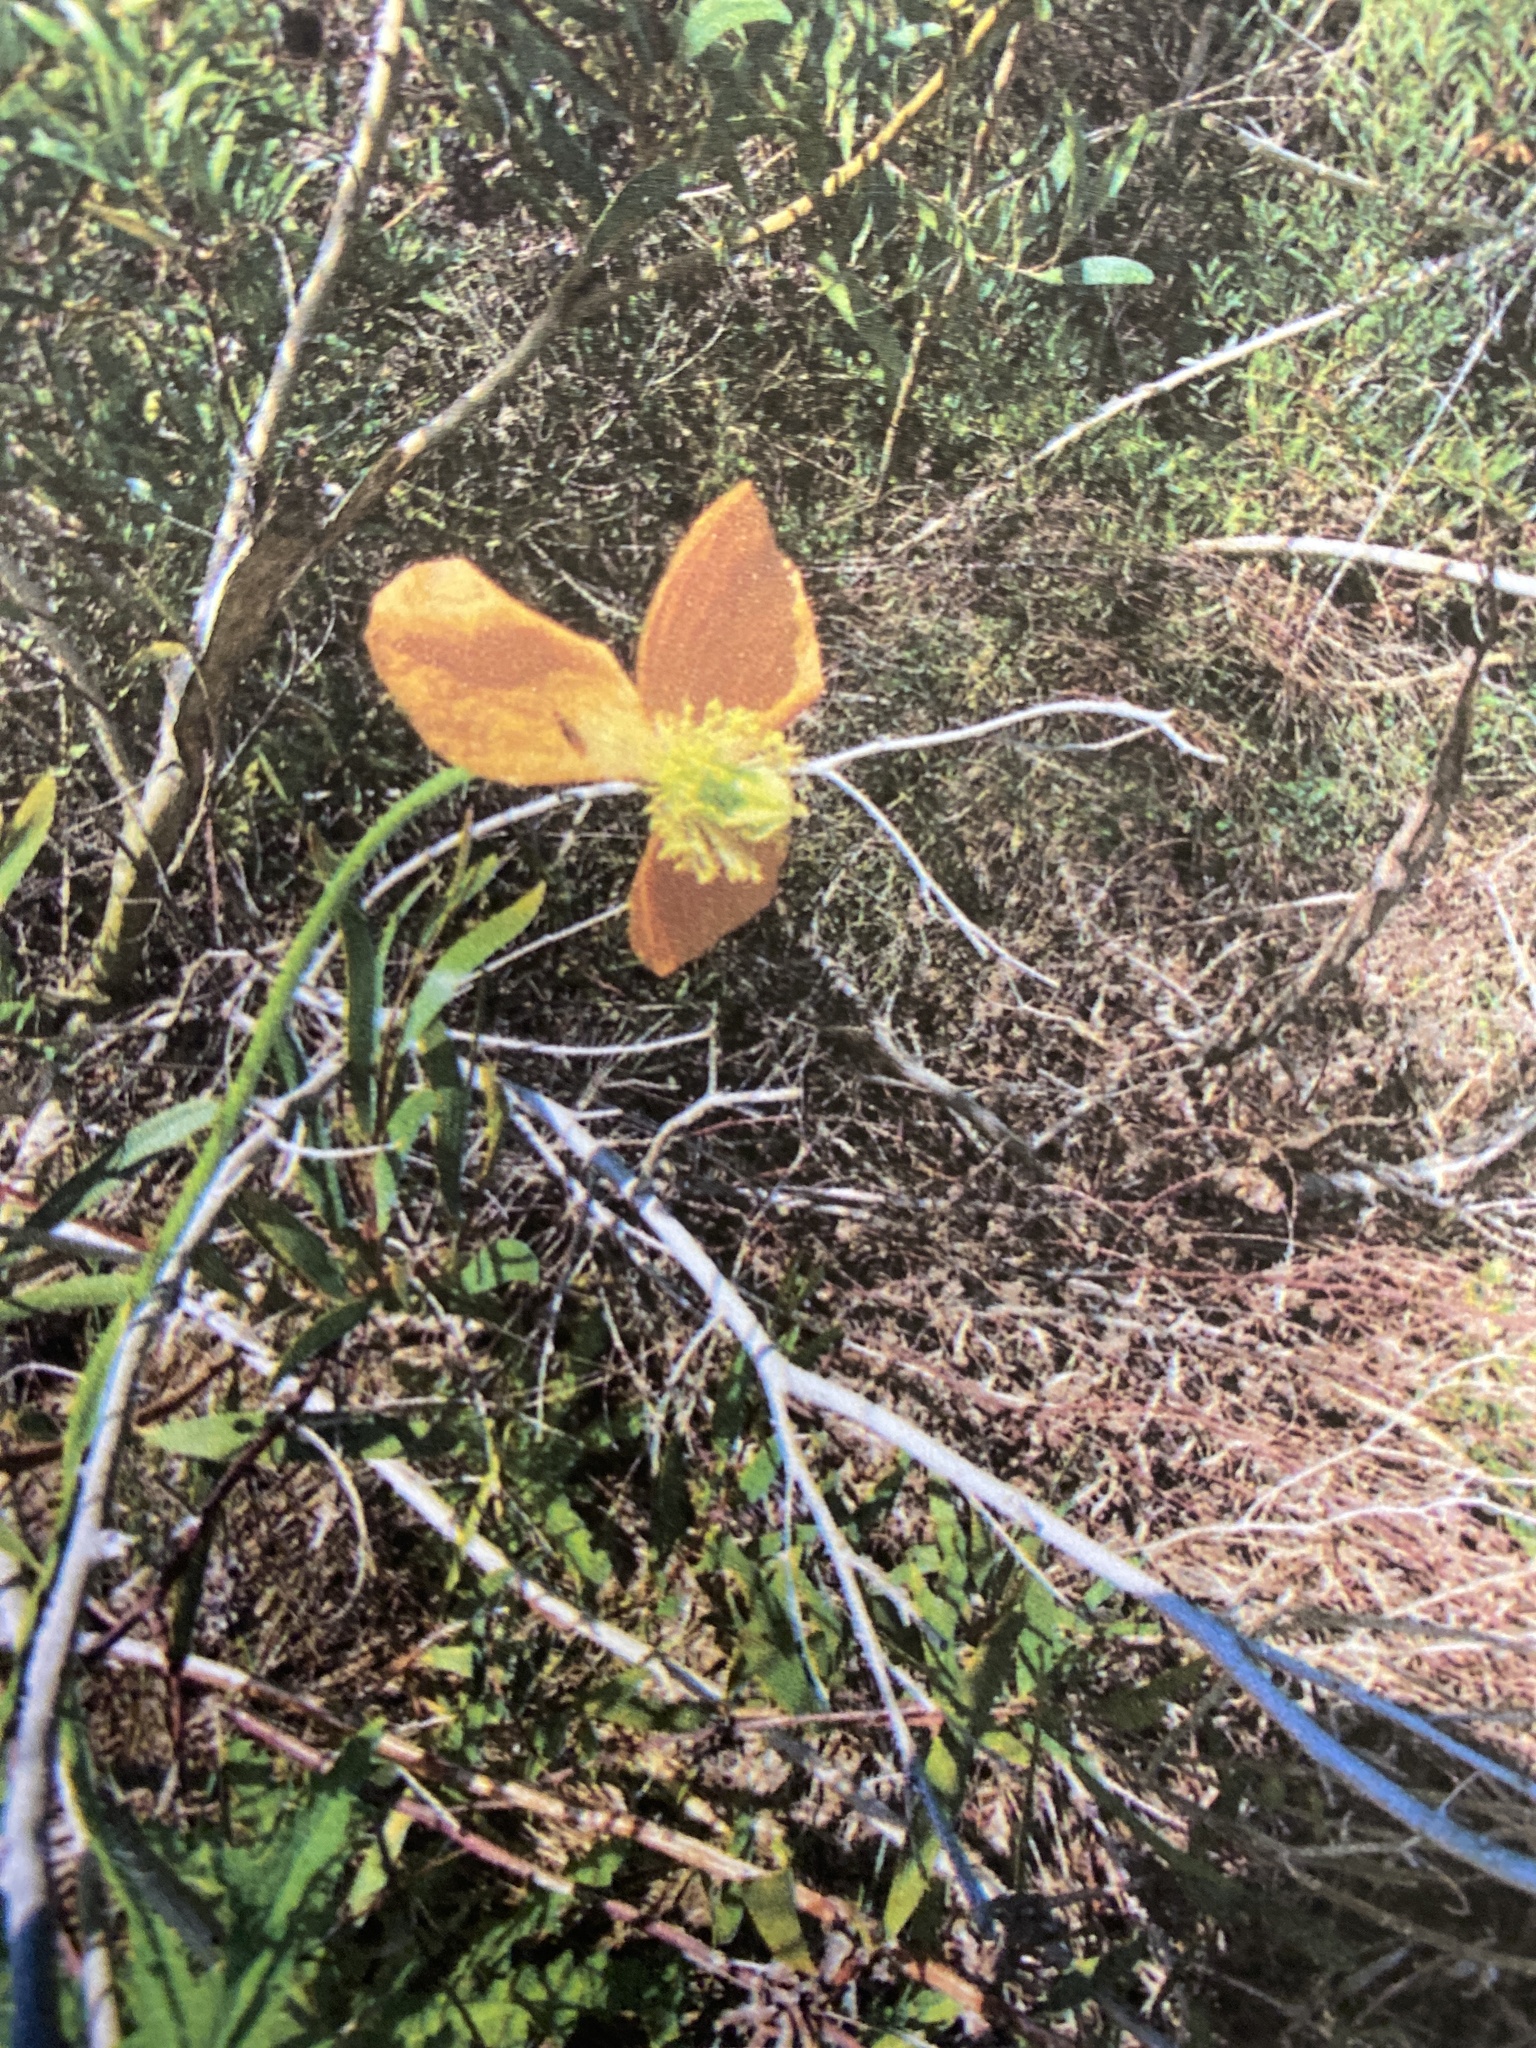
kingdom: Plantae
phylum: Tracheophyta
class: Magnoliopsida
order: Ranunculales
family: Papaveraceae
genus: Papaver
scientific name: Papaver aculeatum
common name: Bristle poppy
